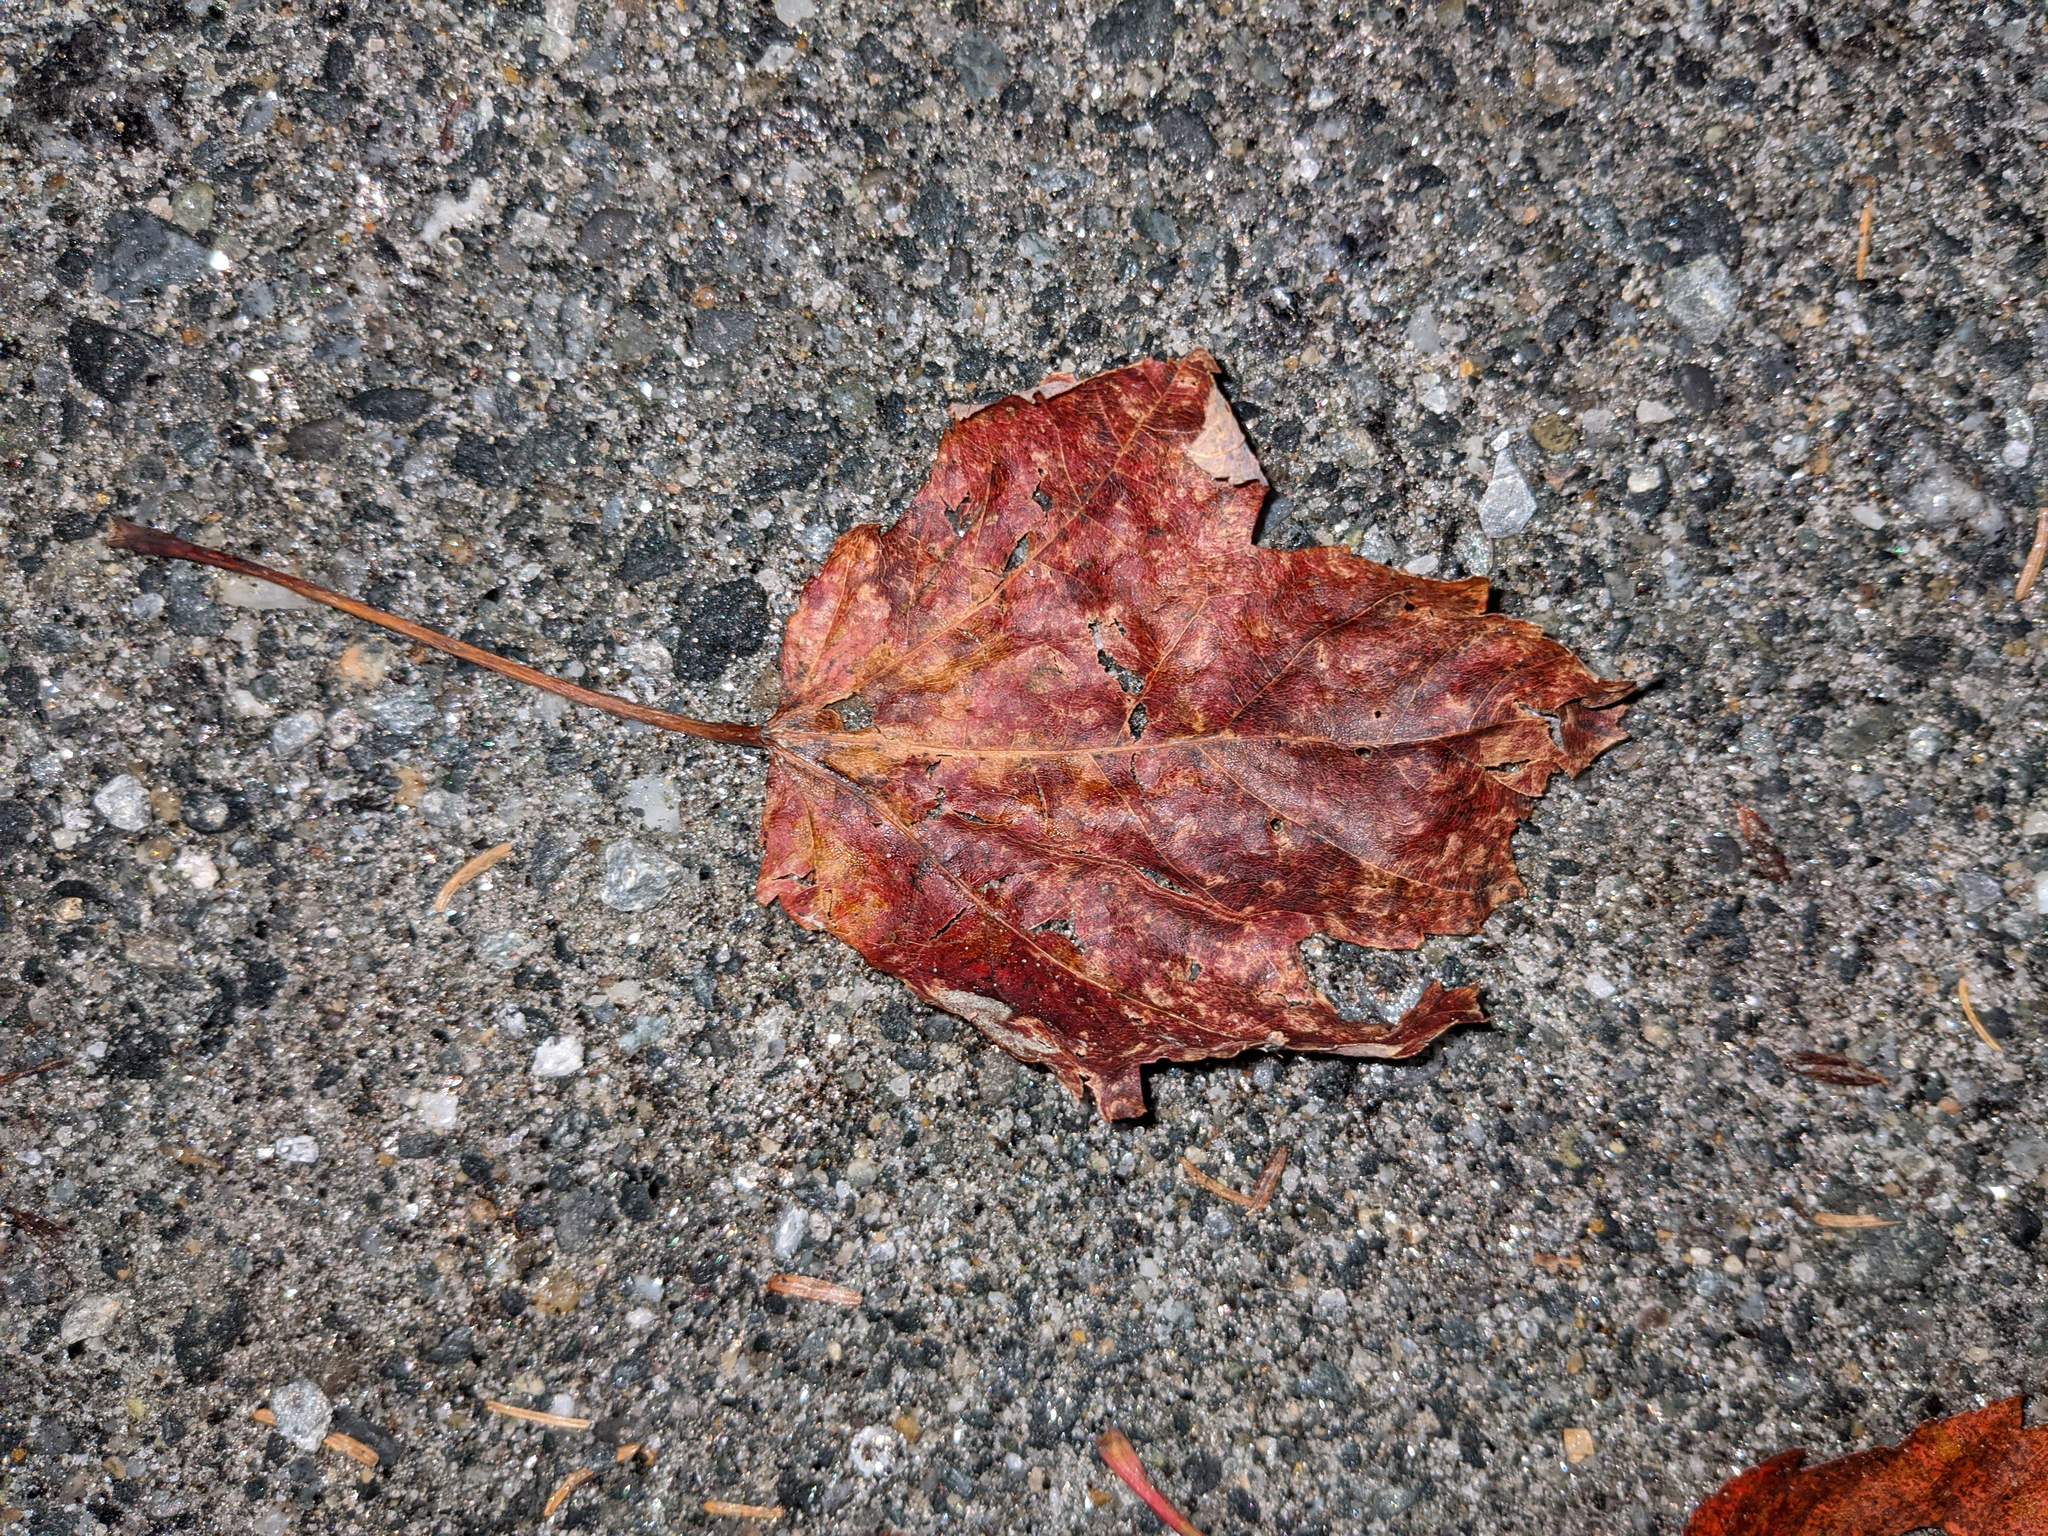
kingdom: Plantae
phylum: Tracheophyta
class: Magnoliopsida
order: Sapindales
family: Sapindaceae
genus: Acer
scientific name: Acer rubrum
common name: Red maple
